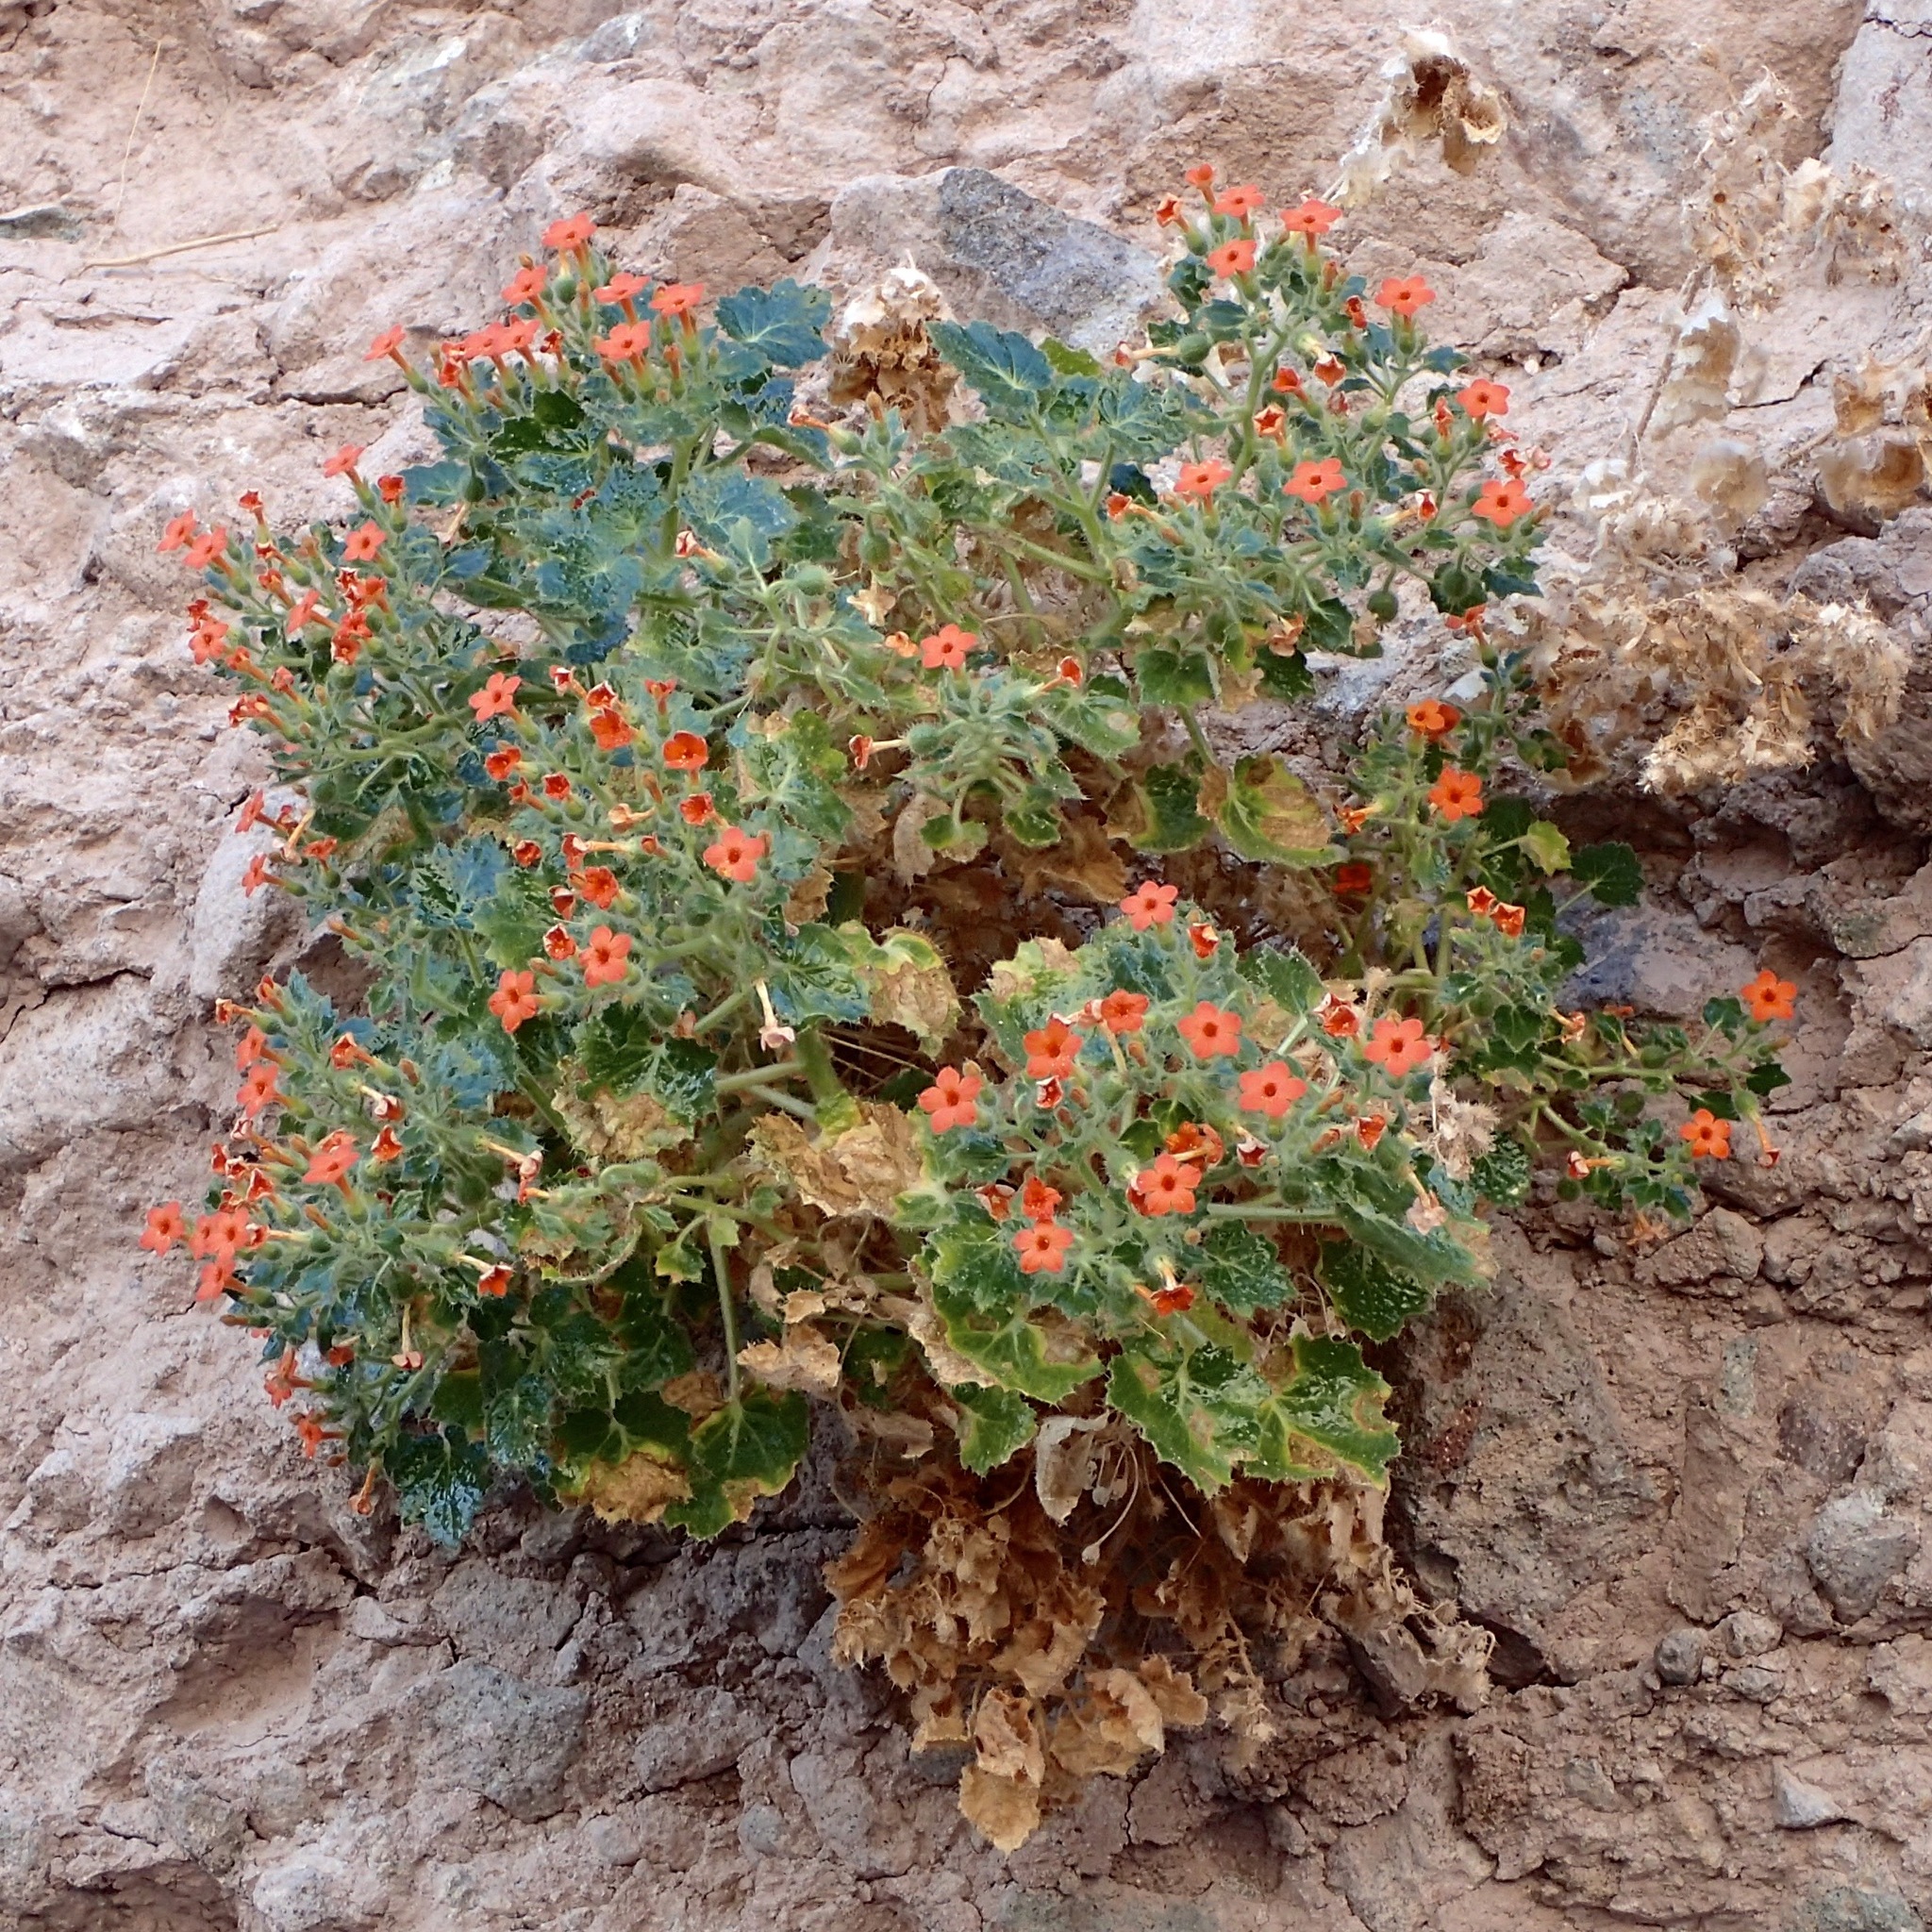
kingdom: Plantae
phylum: Tracheophyta
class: Magnoliopsida
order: Cornales
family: Loasaceae
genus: Eucnide
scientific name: Eucnide aurea
